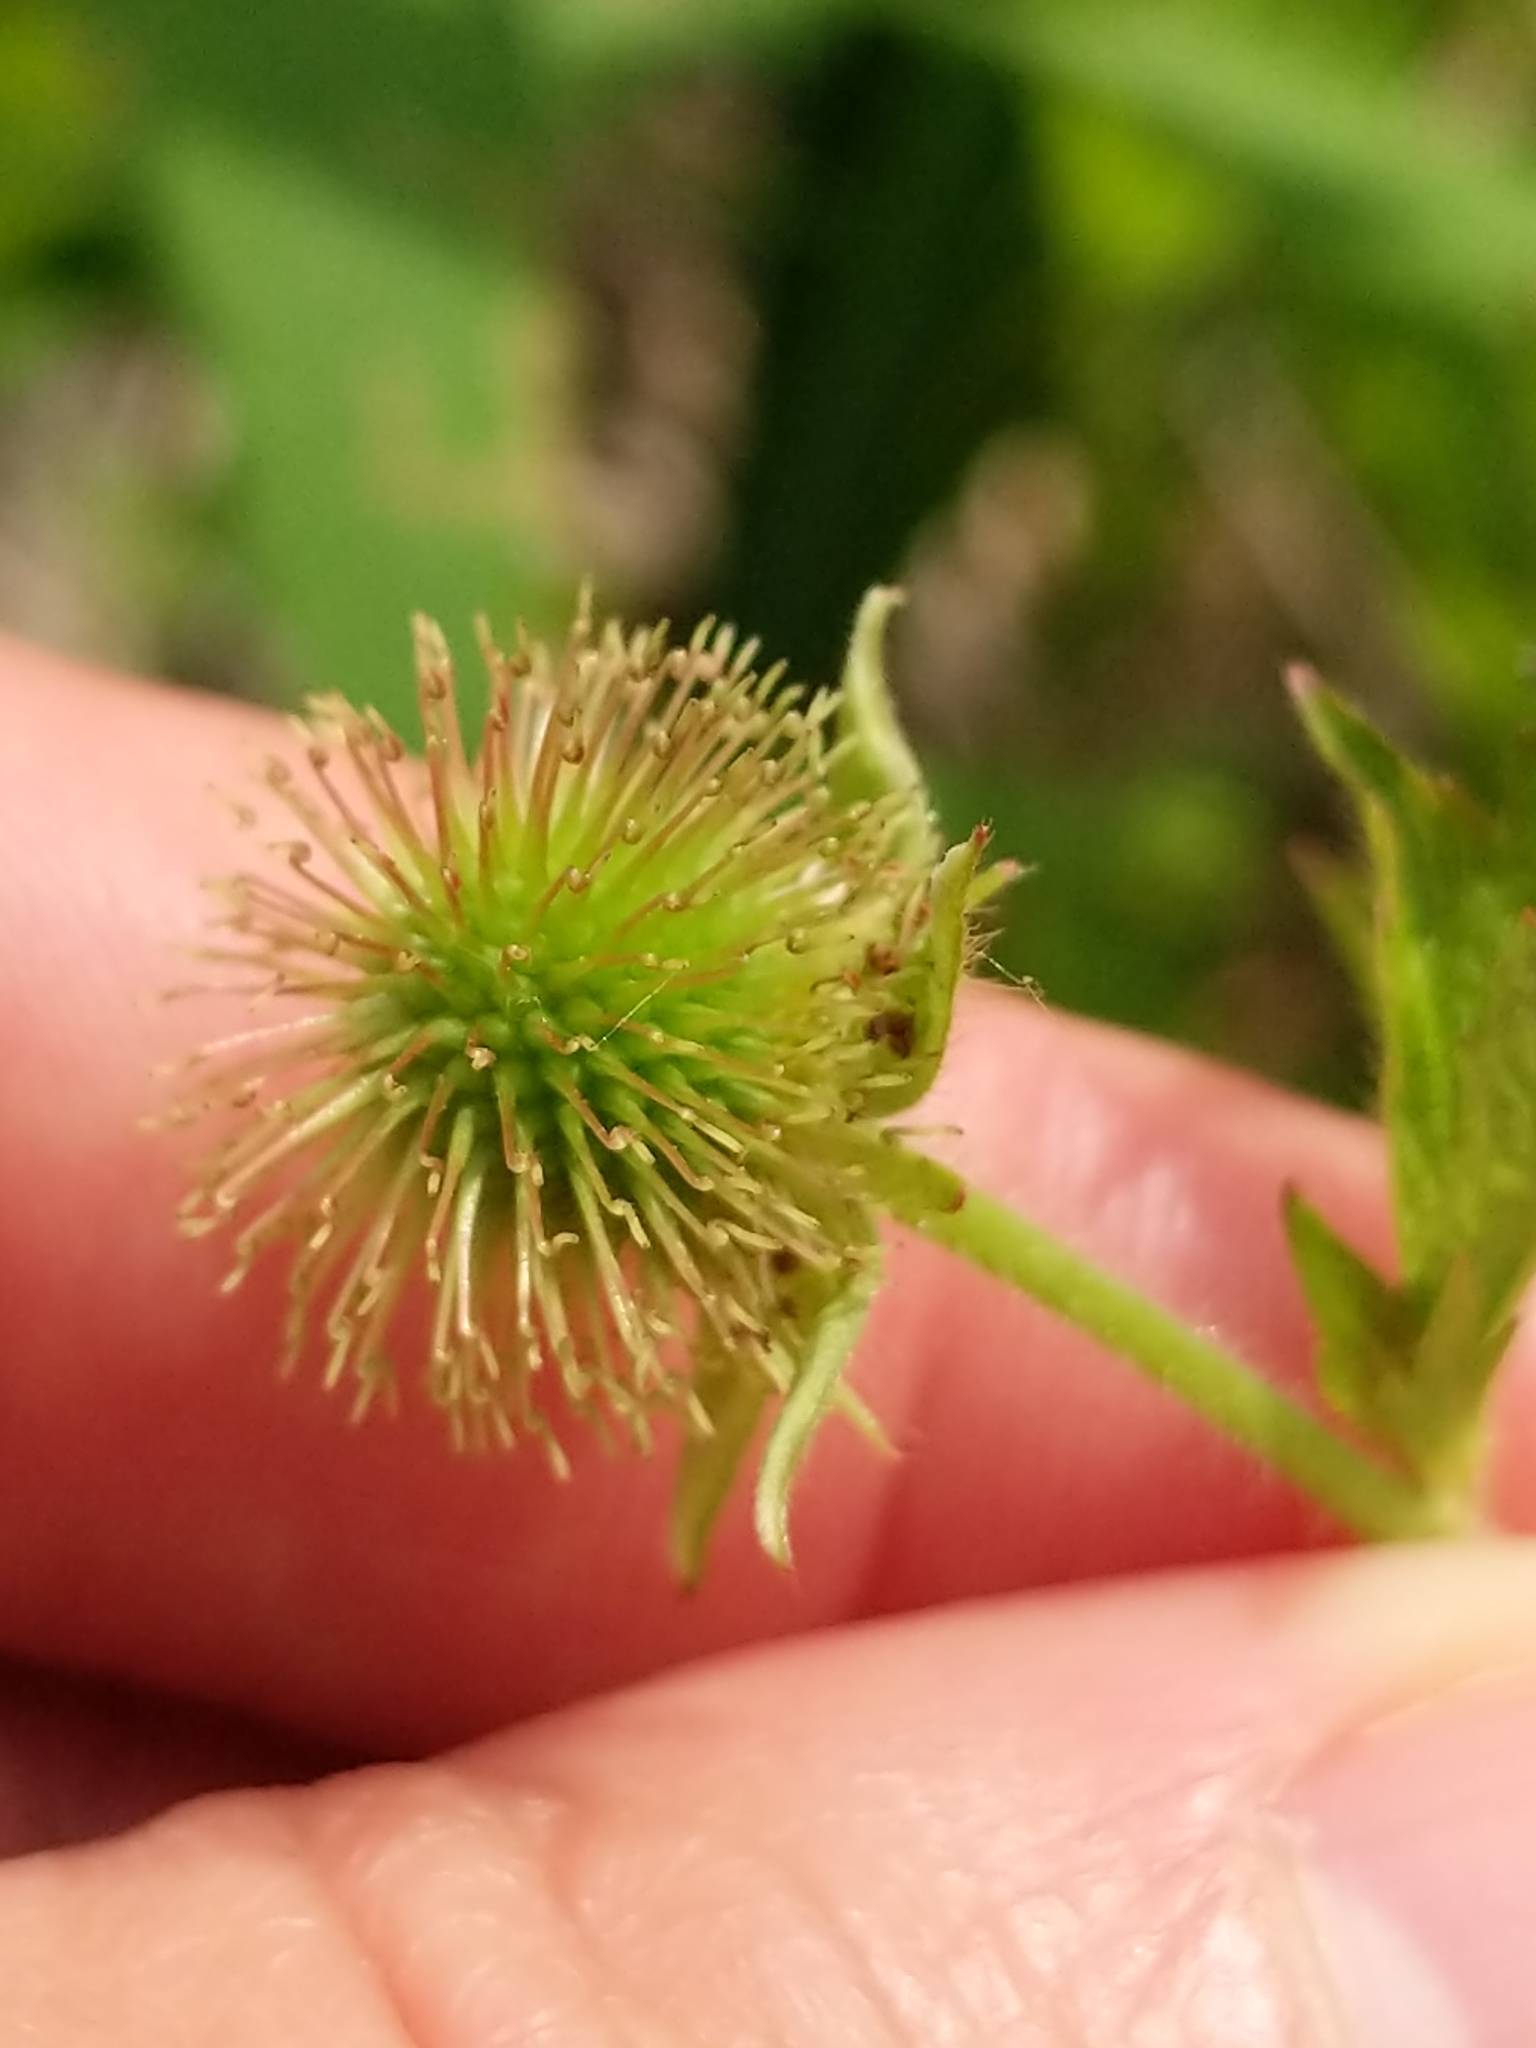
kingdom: Plantae
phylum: Tracheophyta
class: Magnoliopsida
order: Rosales
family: Rosaceae
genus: Geum
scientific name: Geum laciniatum
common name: Rough avens
